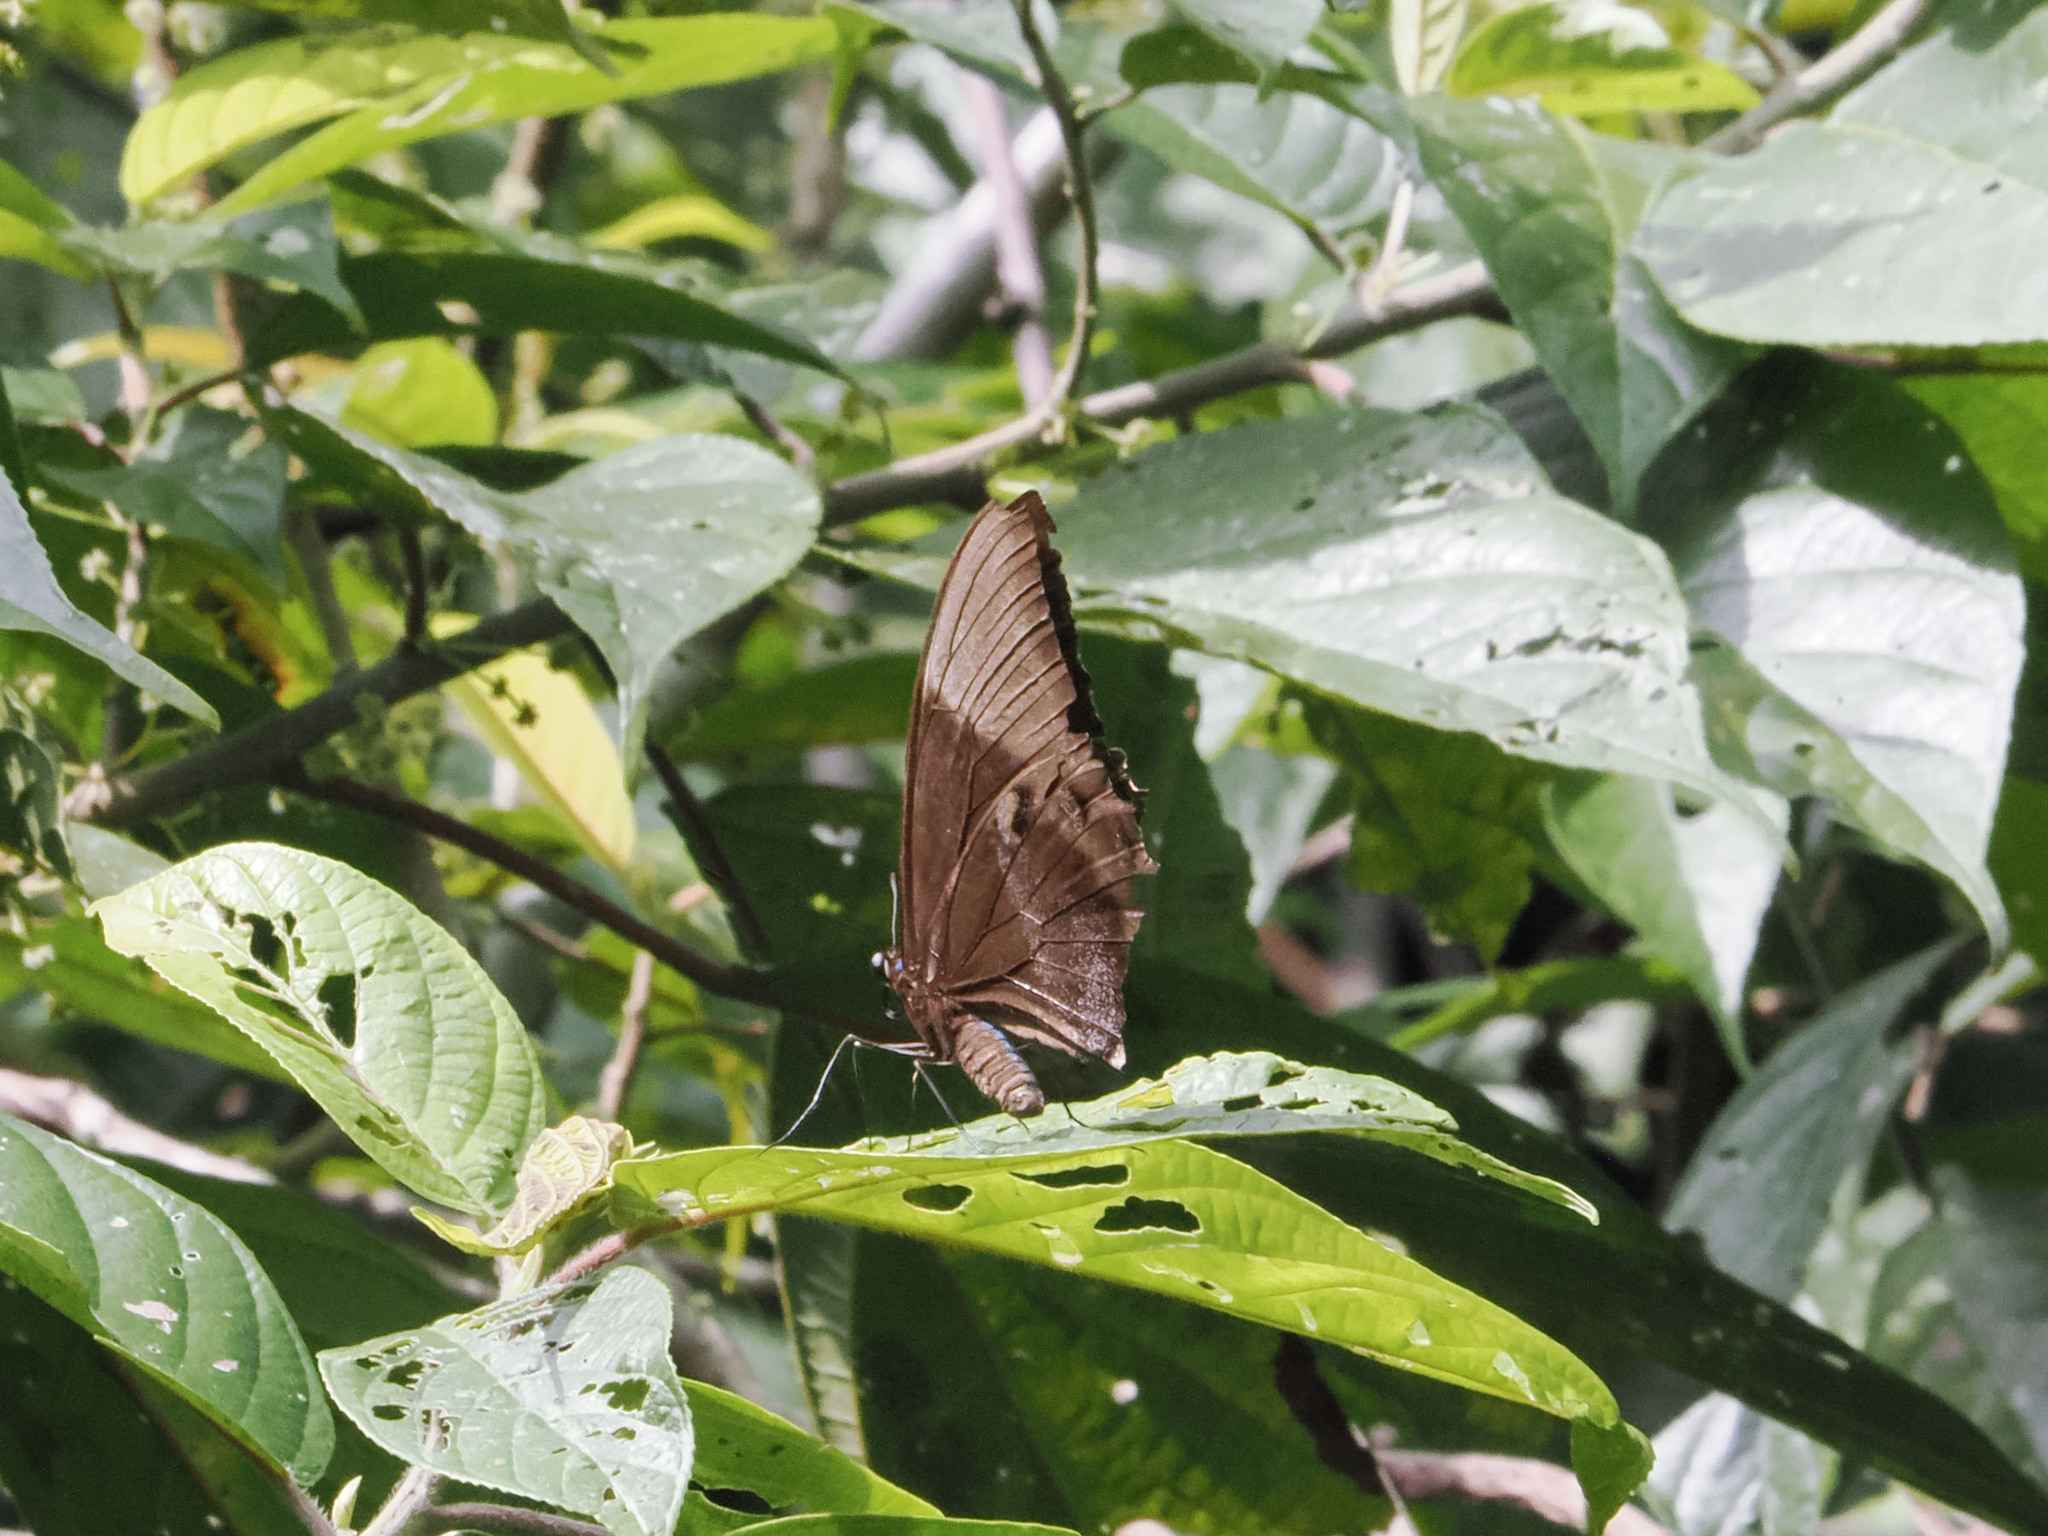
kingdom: Animalia
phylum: Arthropoda
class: Insecta
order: Lepidoptera
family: Papilionidae
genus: Papilio
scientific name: Papilio ulysses
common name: Blue emperor
